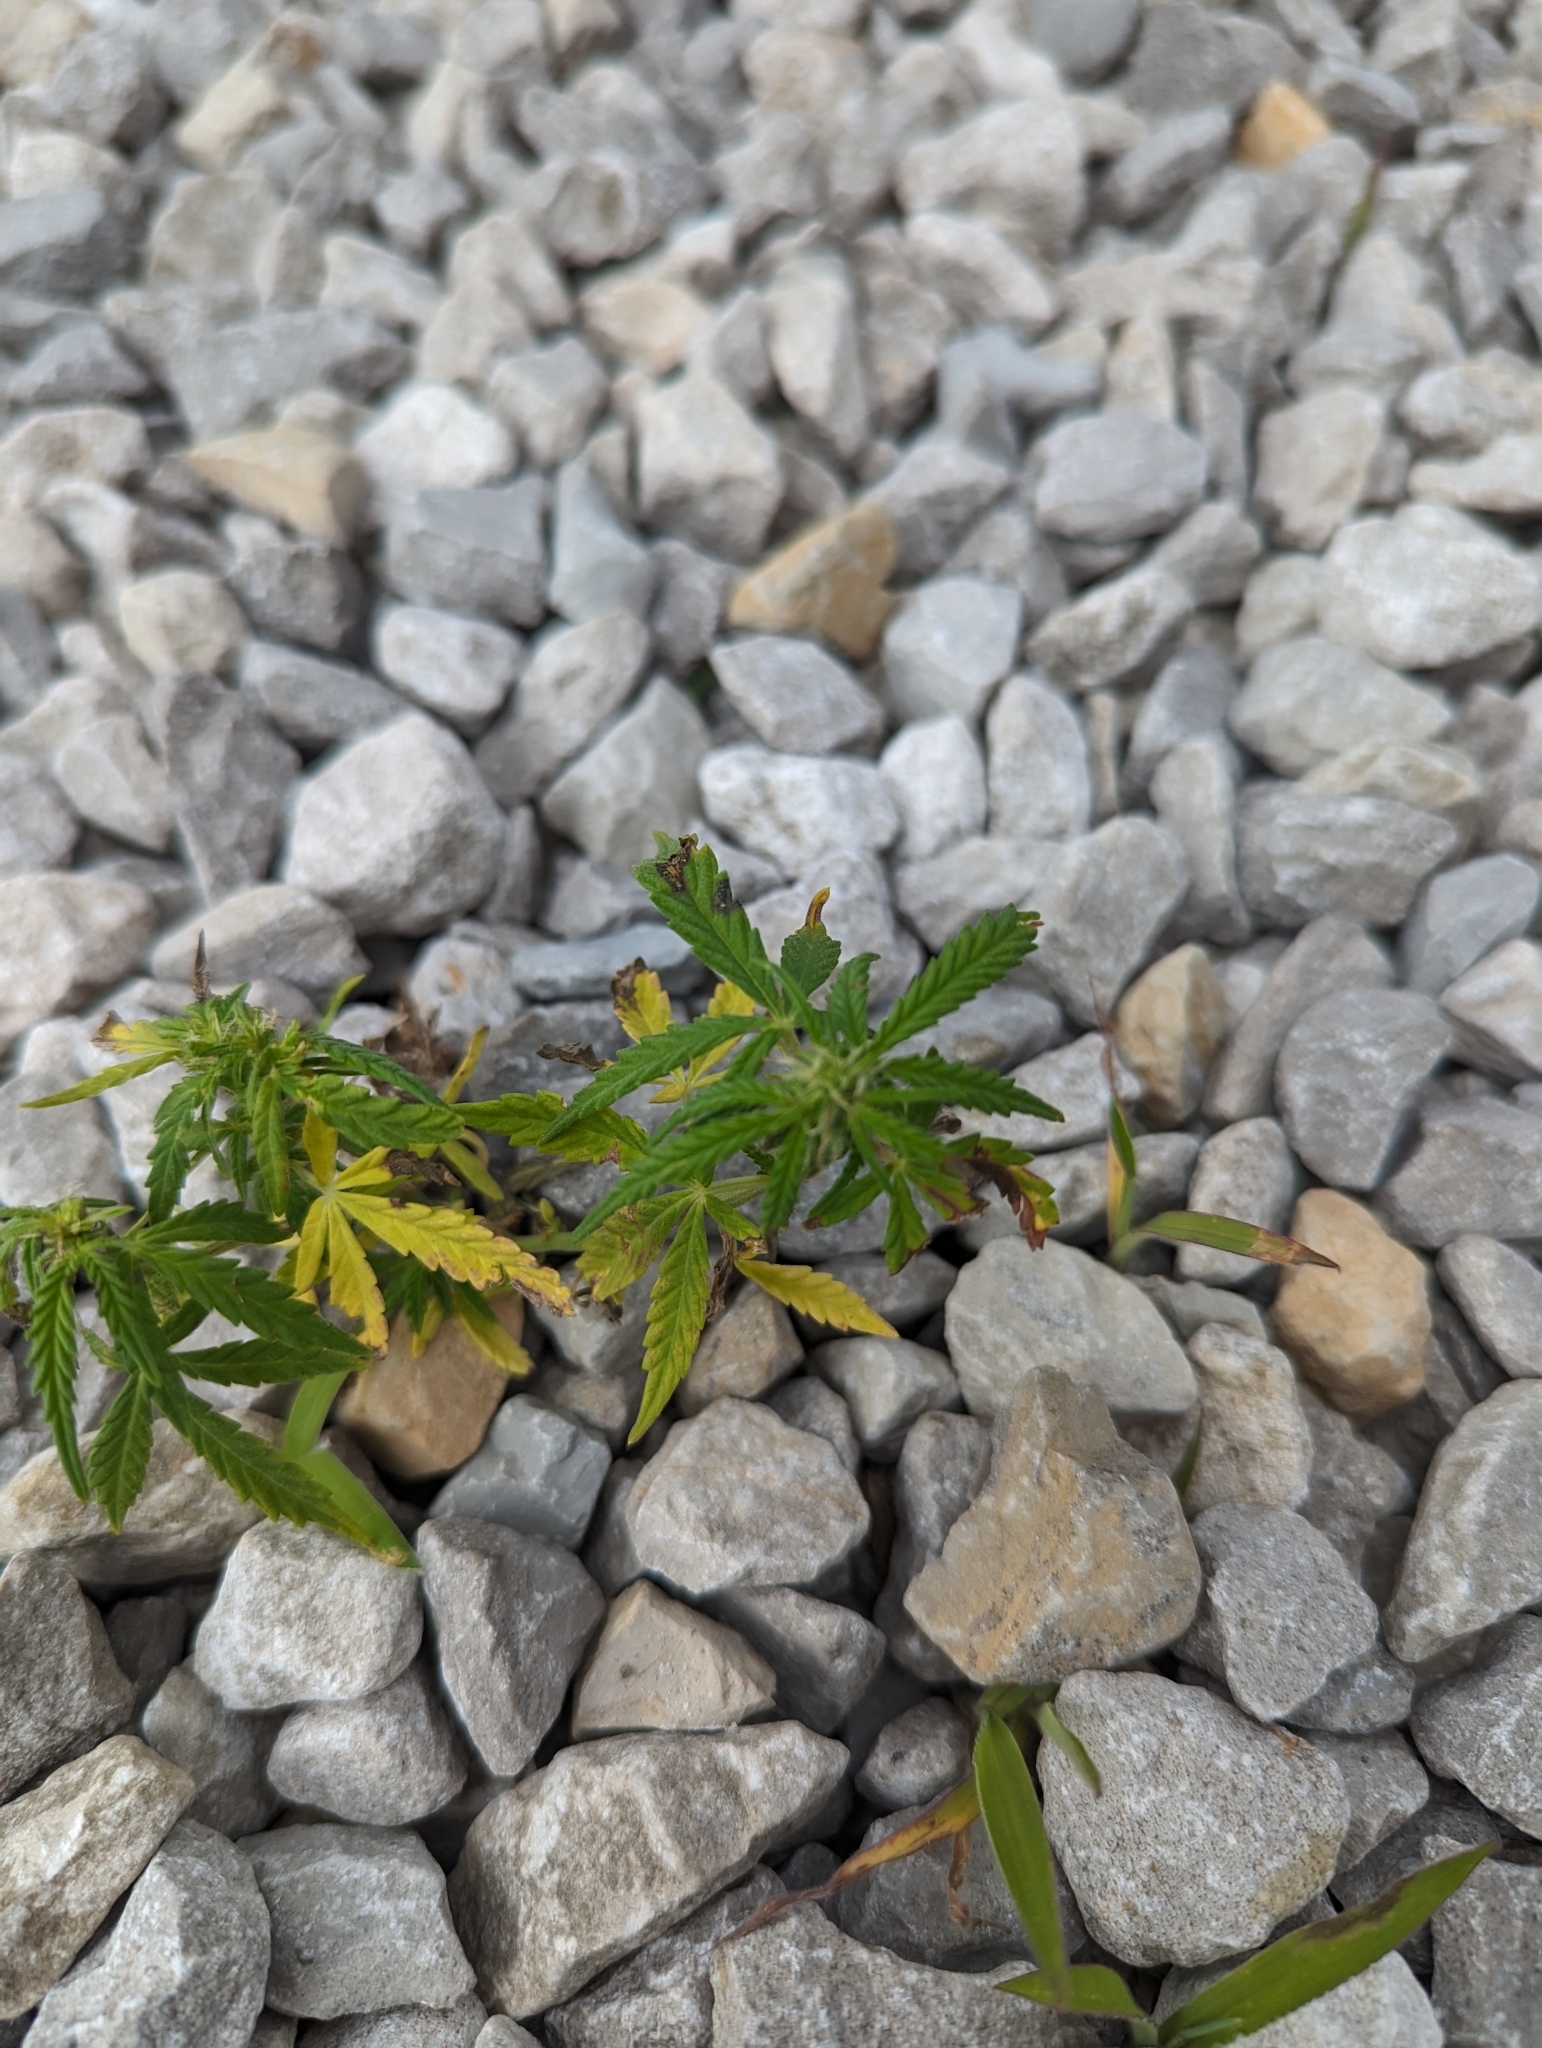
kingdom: Plantae
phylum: Tracheophyta
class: Magnoliopsida
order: Rosales
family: Cannabaceae
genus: Cannabis
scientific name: Cannabis sativa
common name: Hemp
